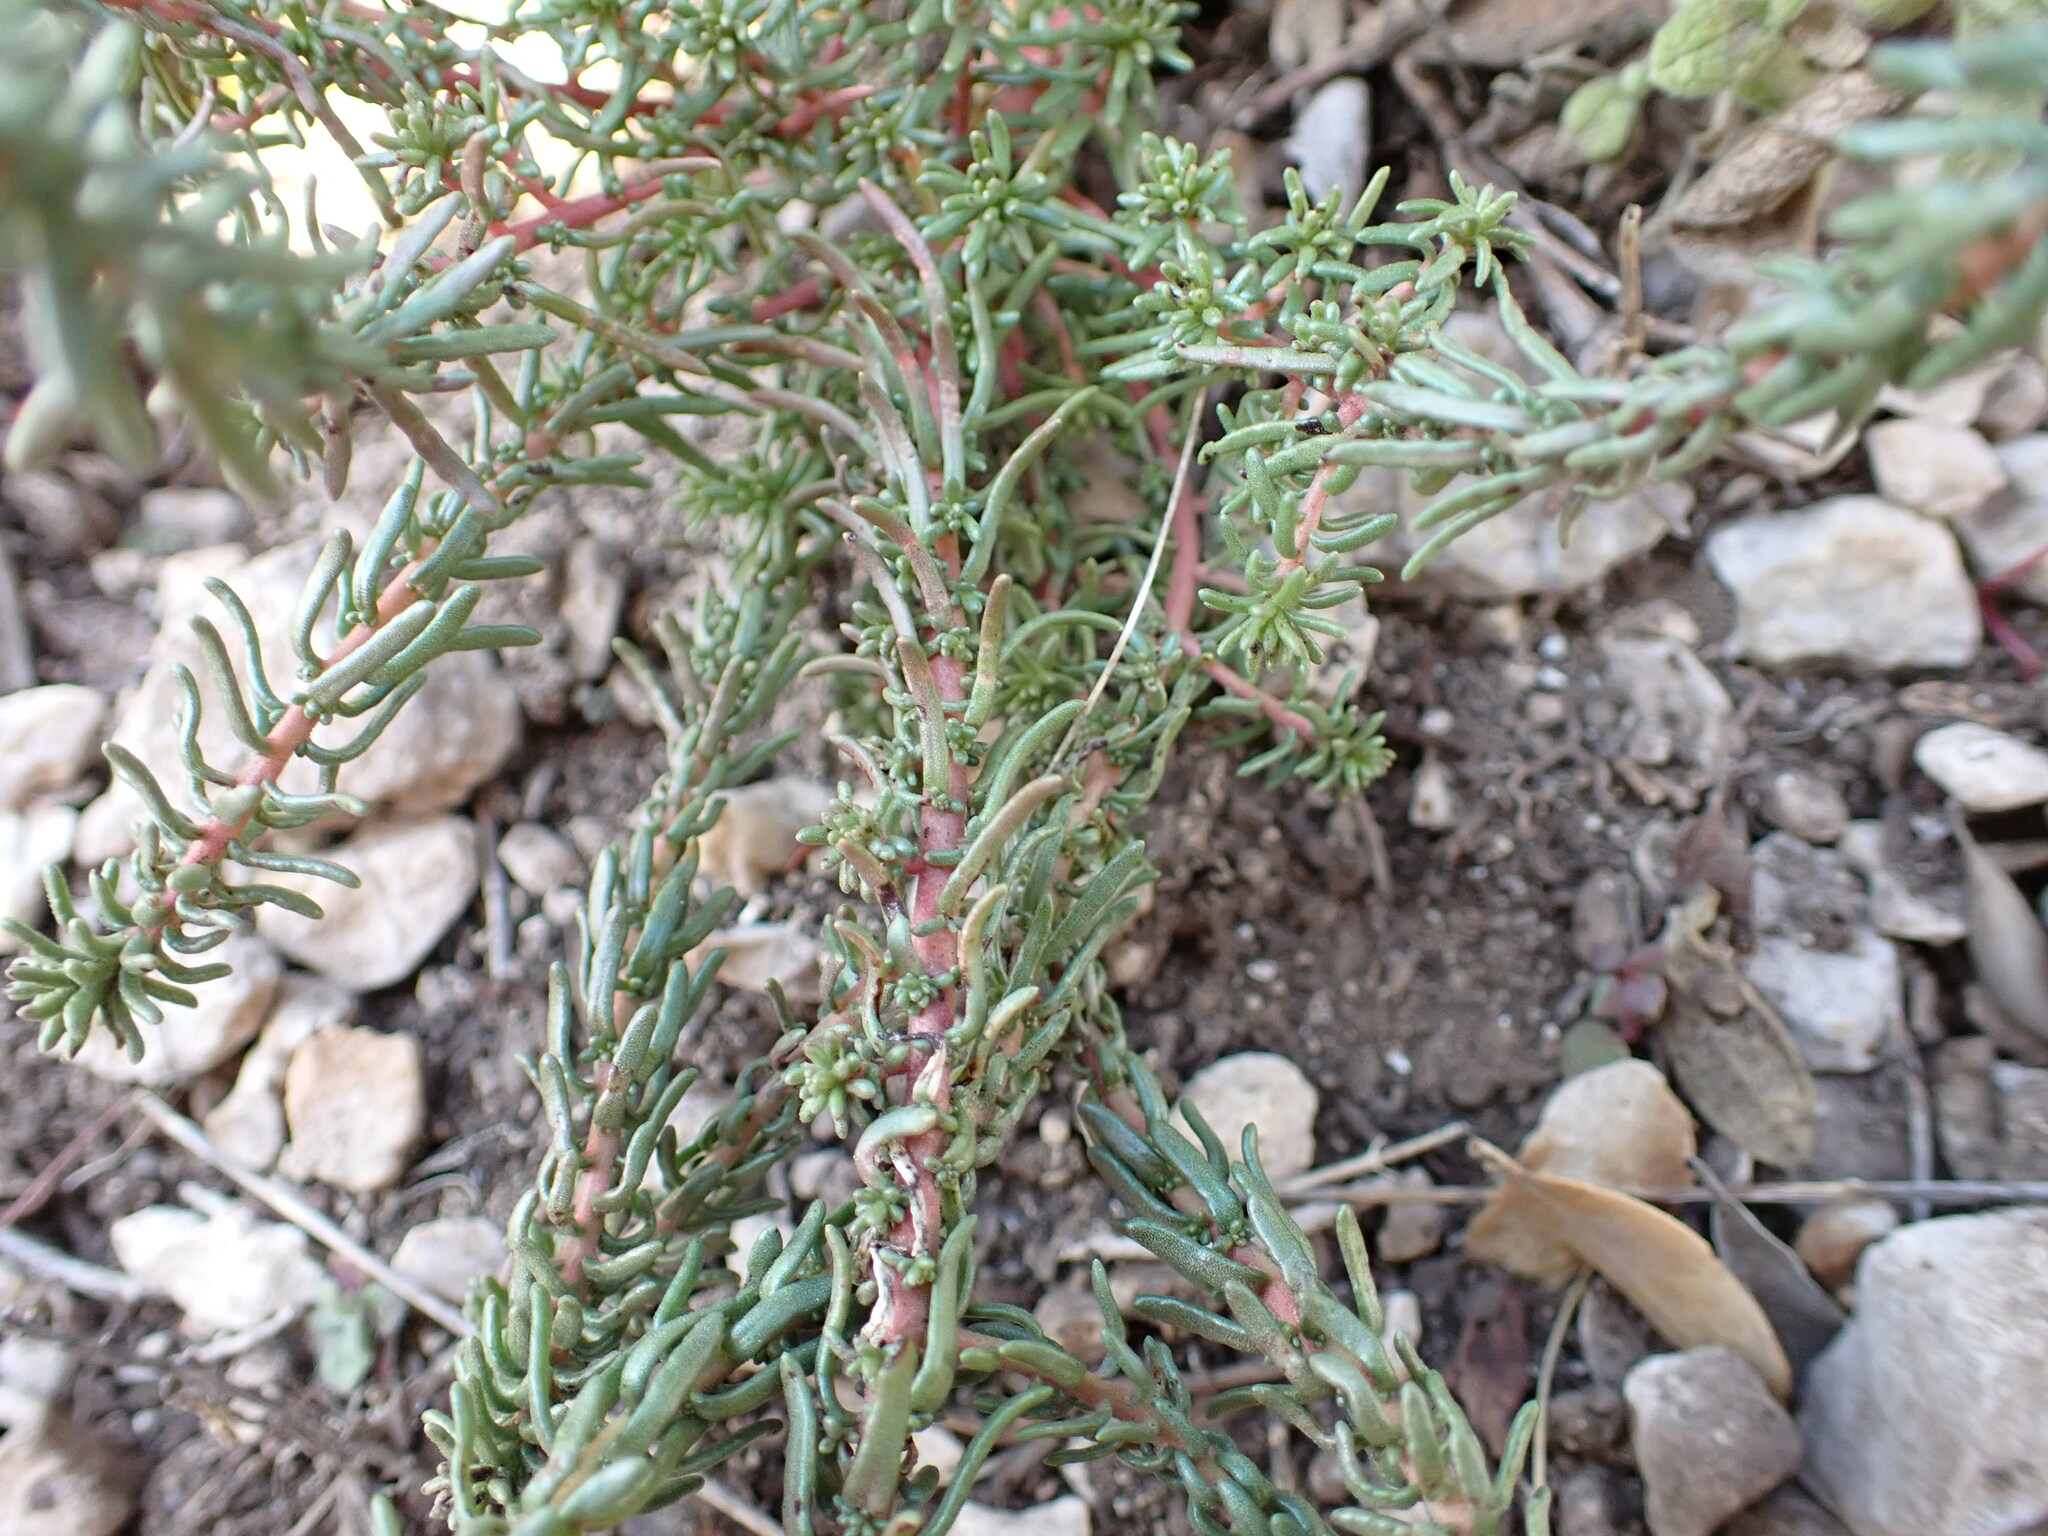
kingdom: Plantae
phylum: Tracheophyta
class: Magnoliopsida
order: Ericales
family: Primulaceae
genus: Coris
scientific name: Coris monspeliensis
